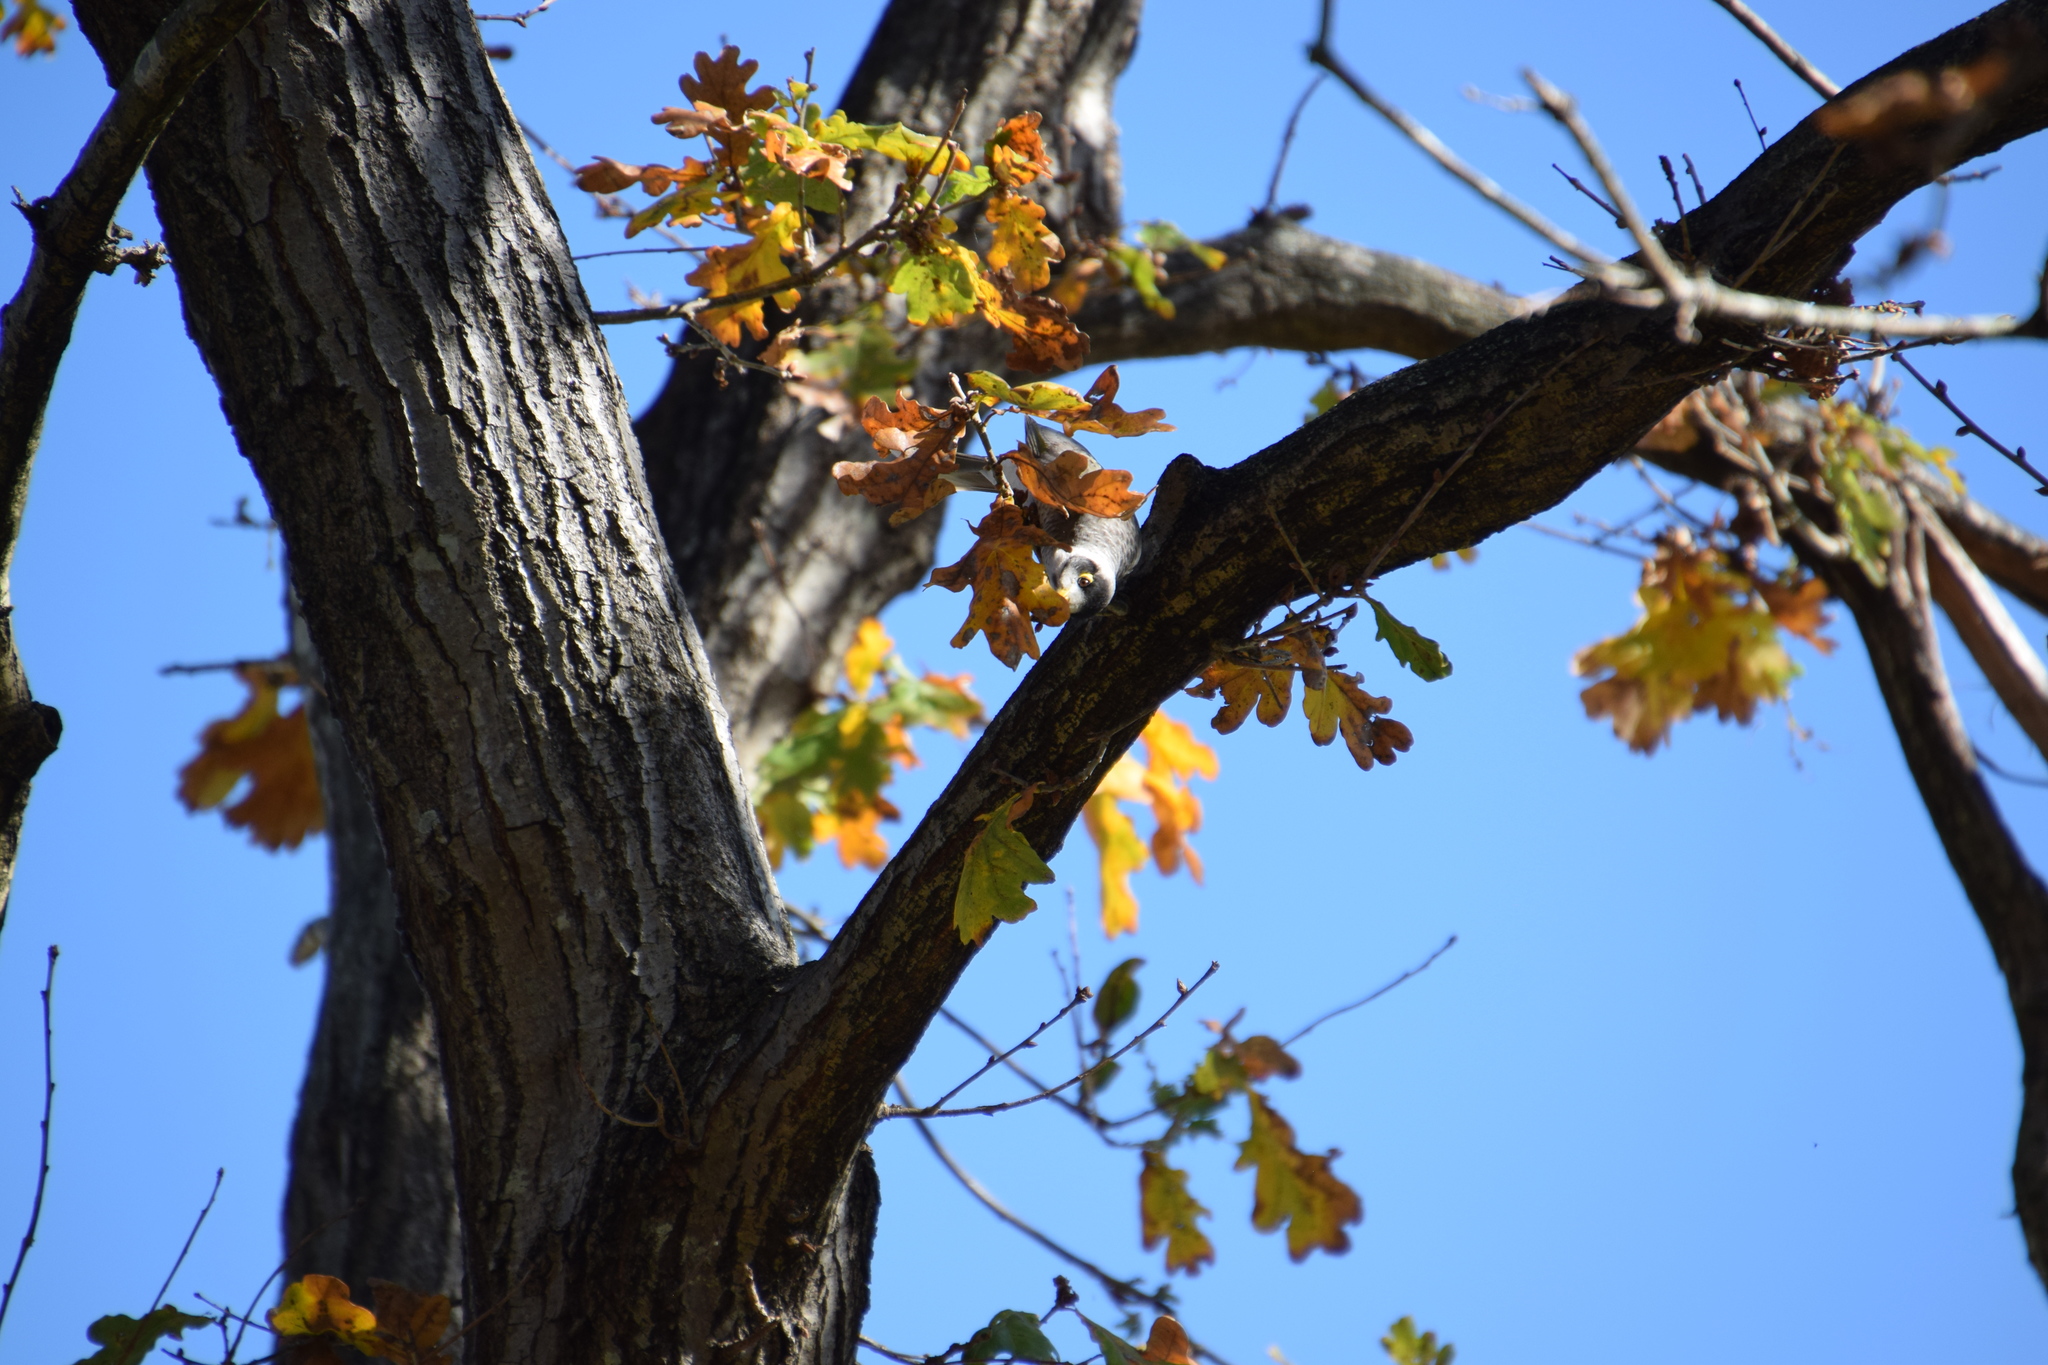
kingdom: Animalia
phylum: Chordata
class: Aves
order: Passeriformes
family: Meliphagidae
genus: Manorina
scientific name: Manorina melanocephala
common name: Noisy miner
